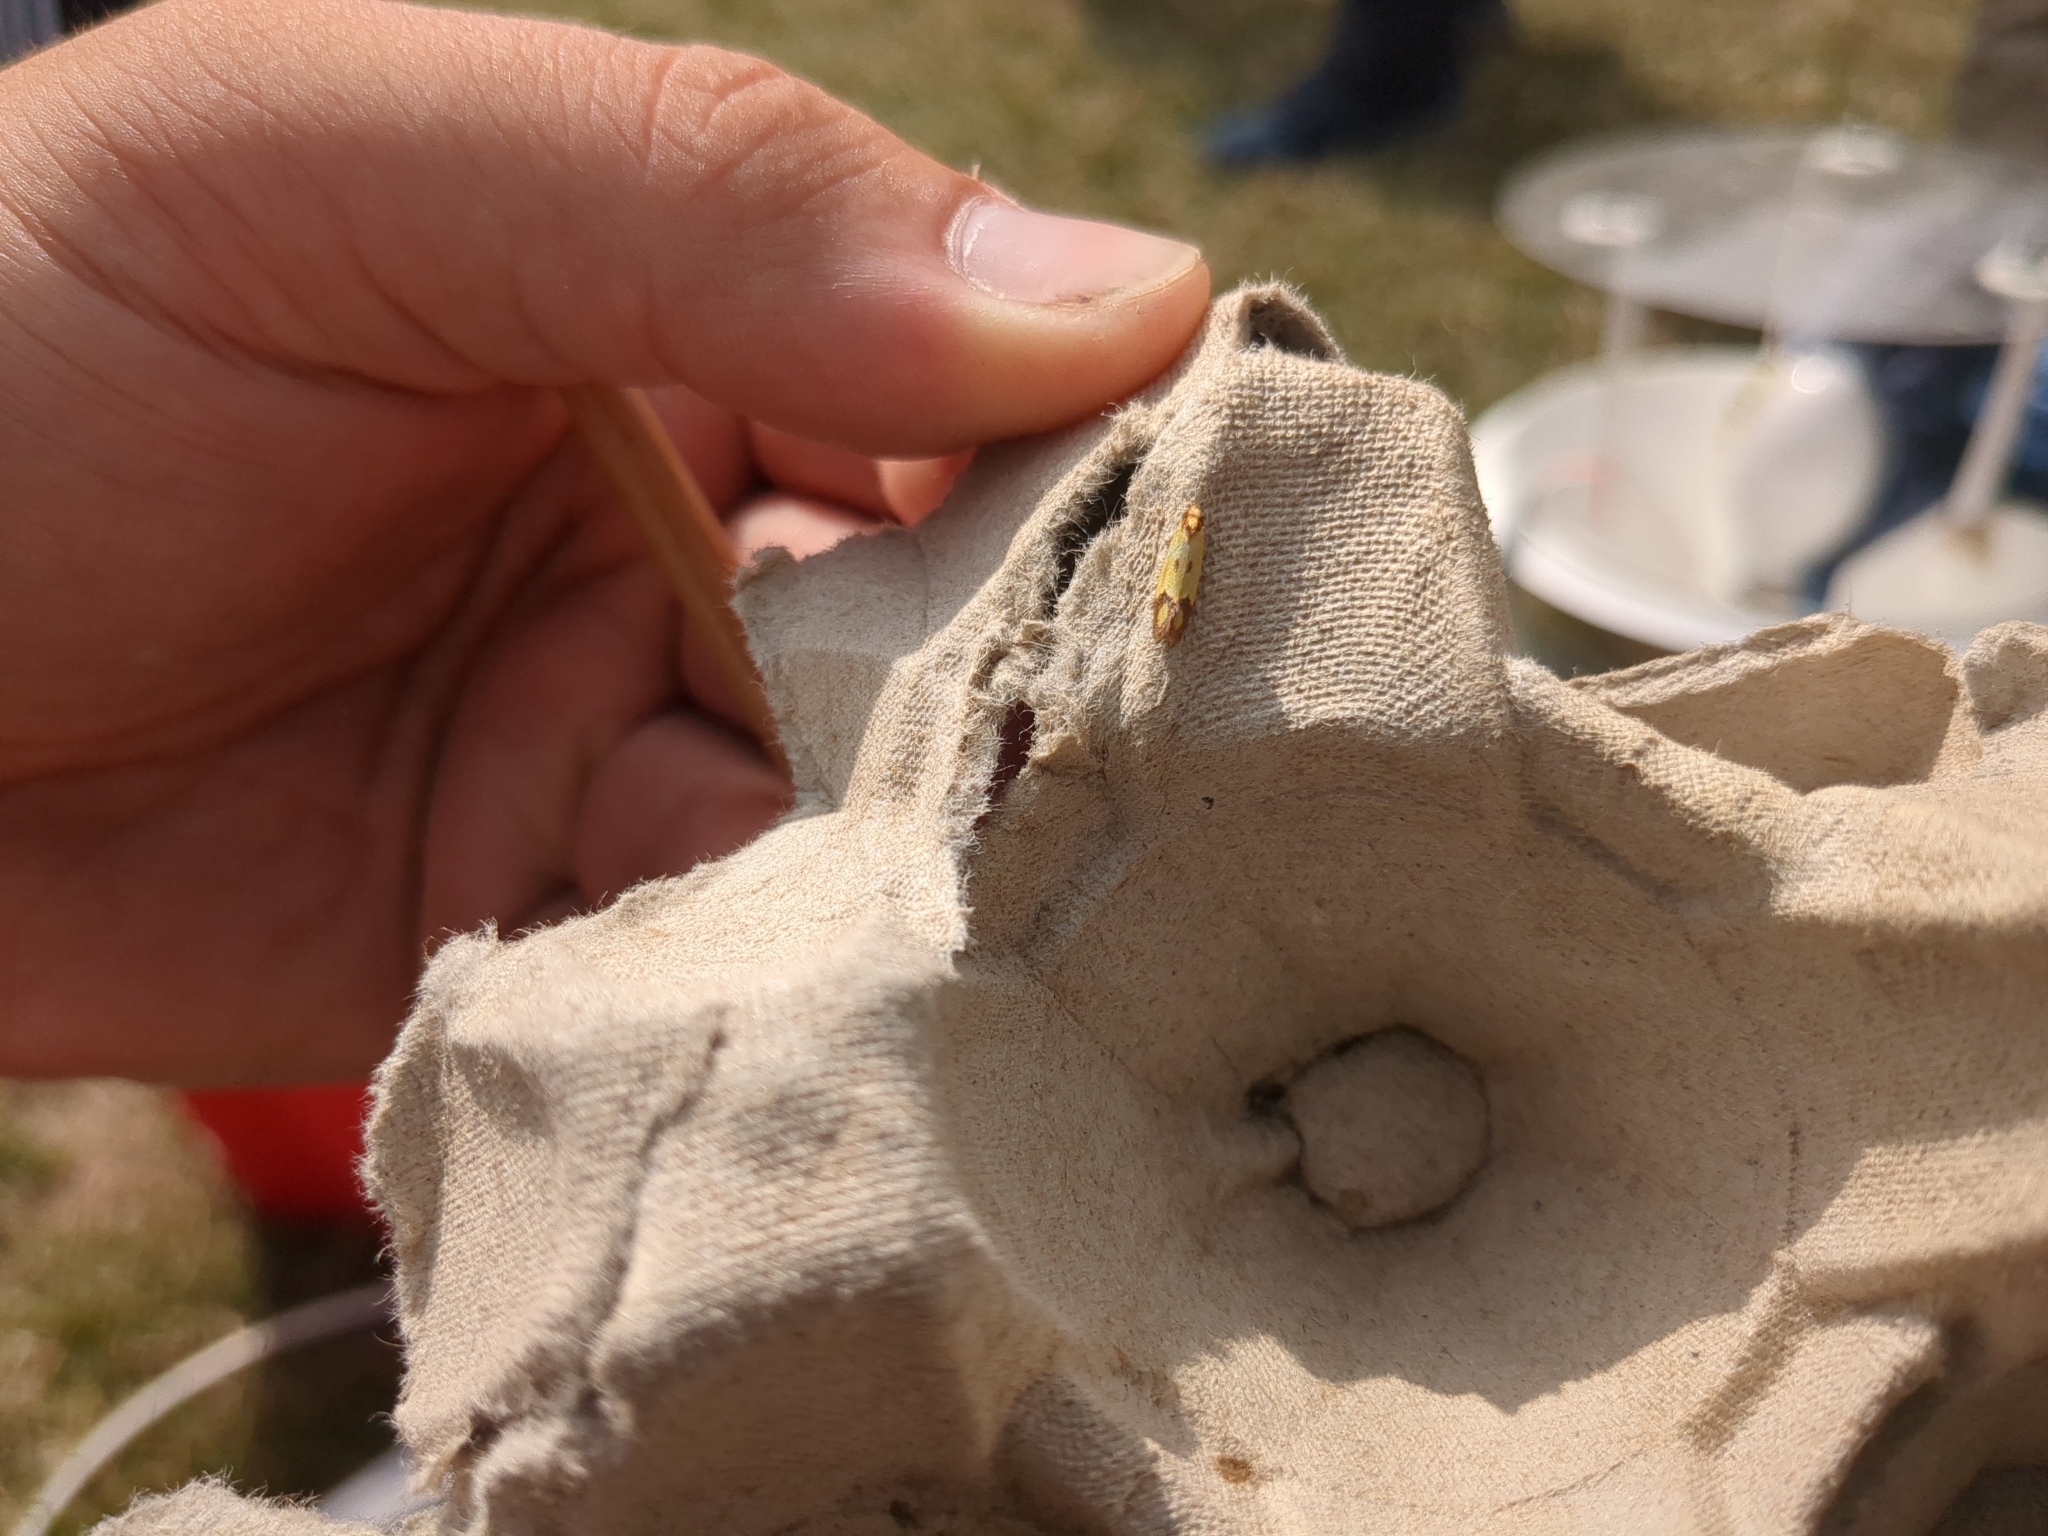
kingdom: Animalia
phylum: Arthropoda
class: Insecta
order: Lepidoptera
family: Tortricidae
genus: Agapeta
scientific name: Agapeta zoegana
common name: Sulfur knapweed root moth
